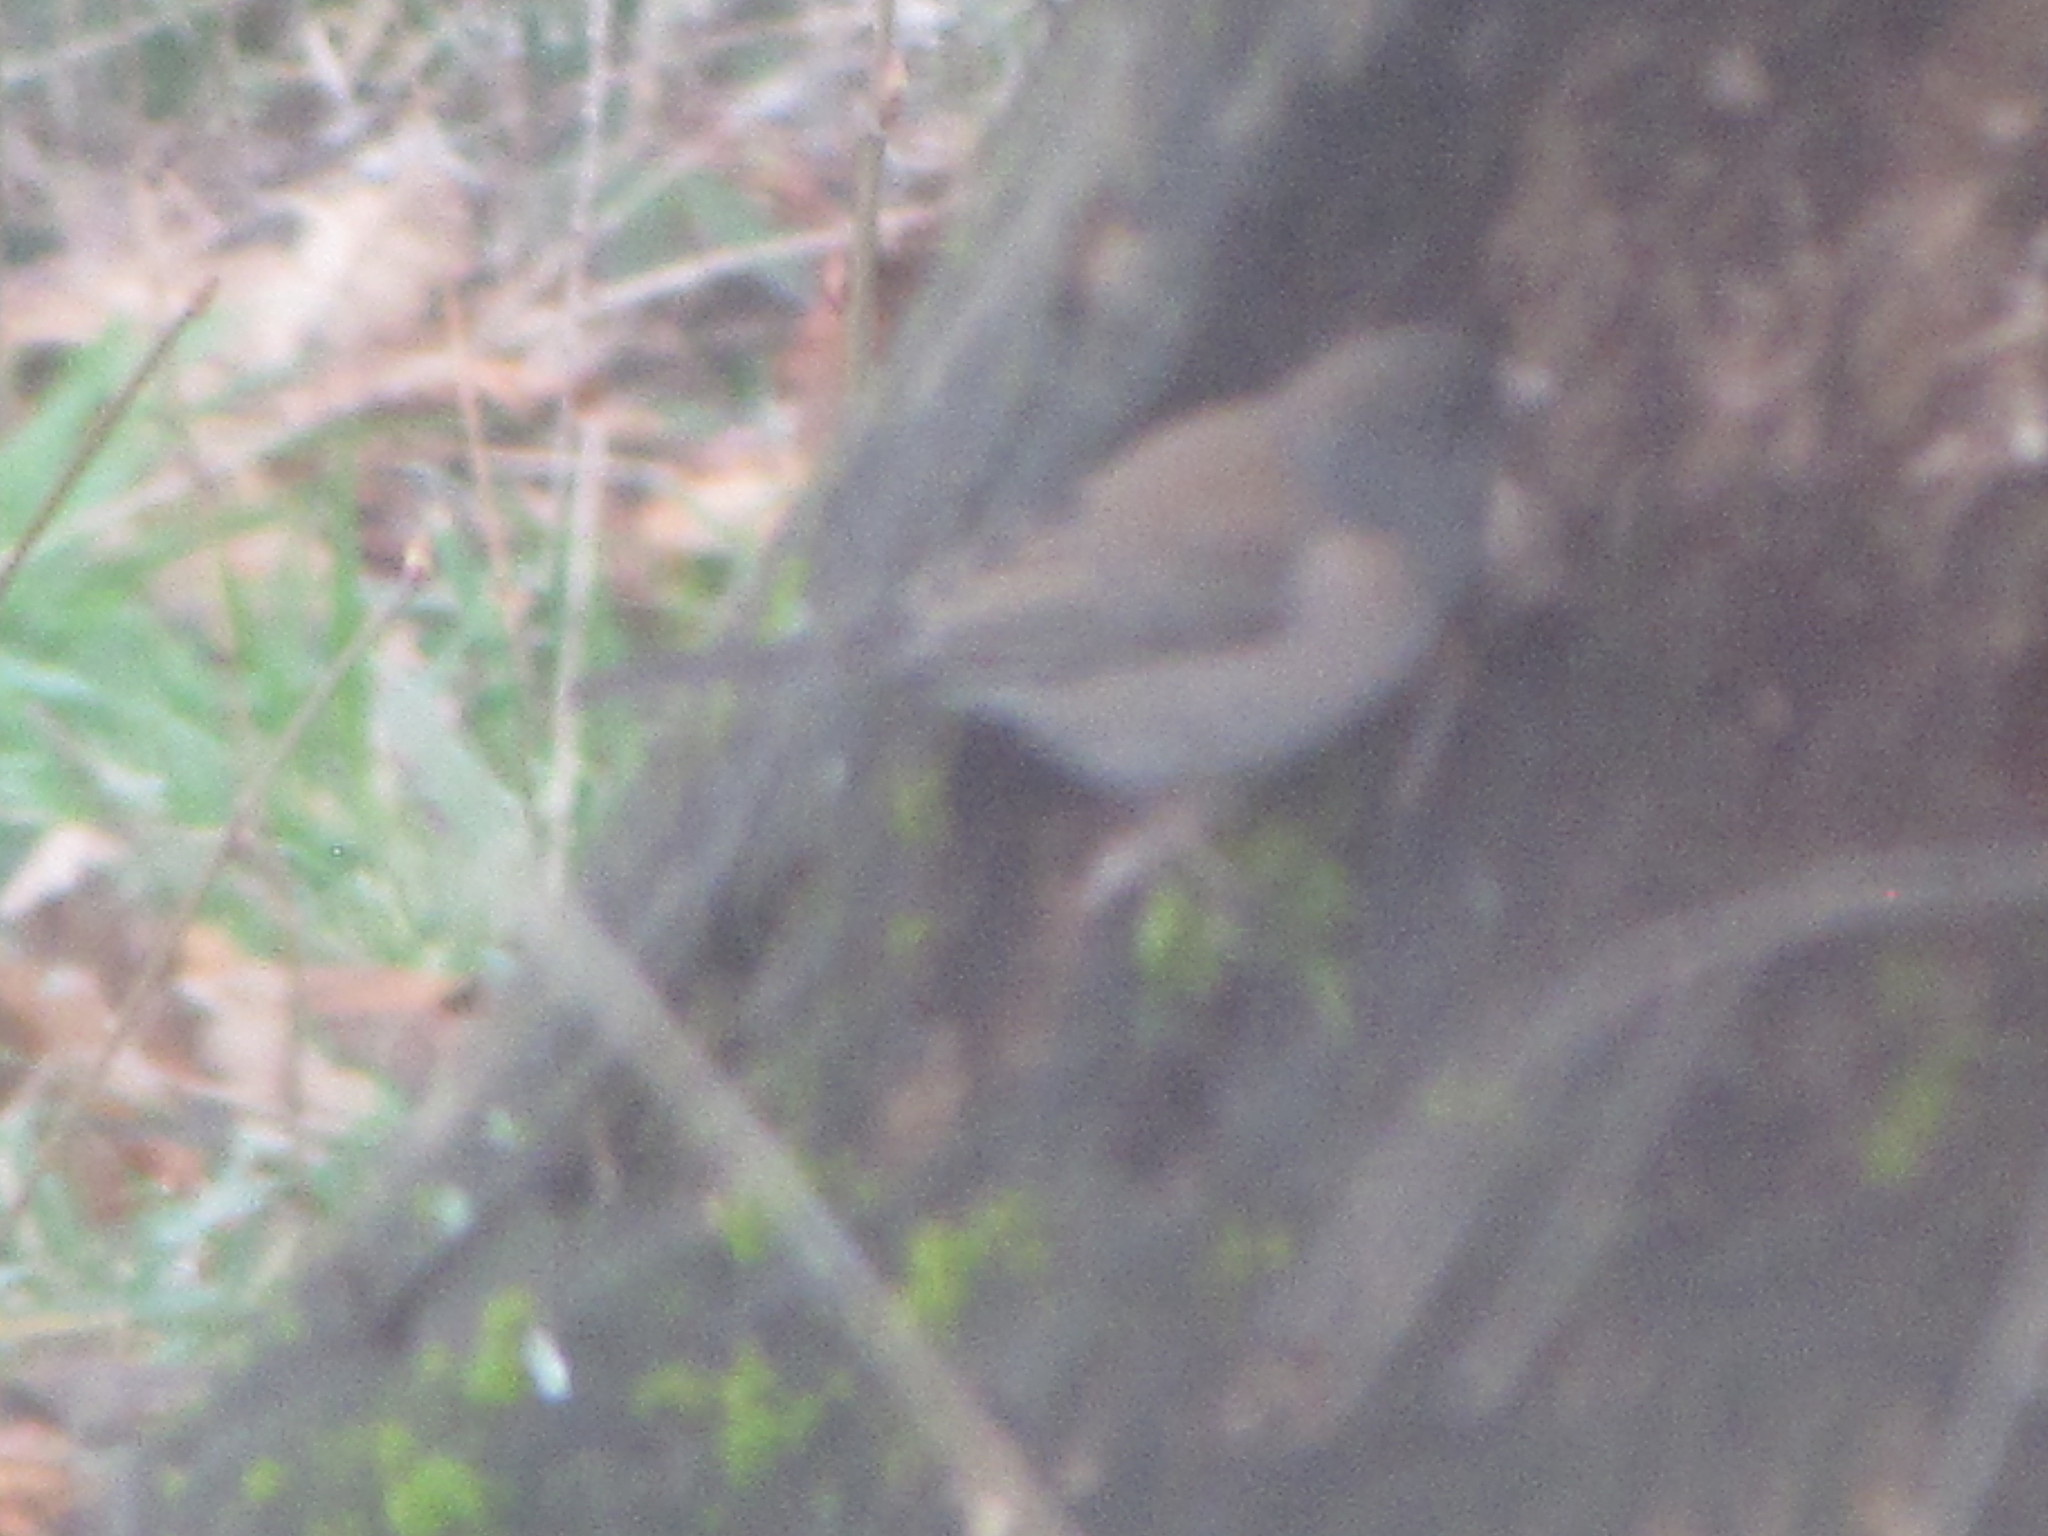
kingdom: Animalia
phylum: Chordata
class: Aves
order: Passeriformes
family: Passerellidae
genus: Junco
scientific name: Junco hyemalis
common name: Dark-eyed junco
